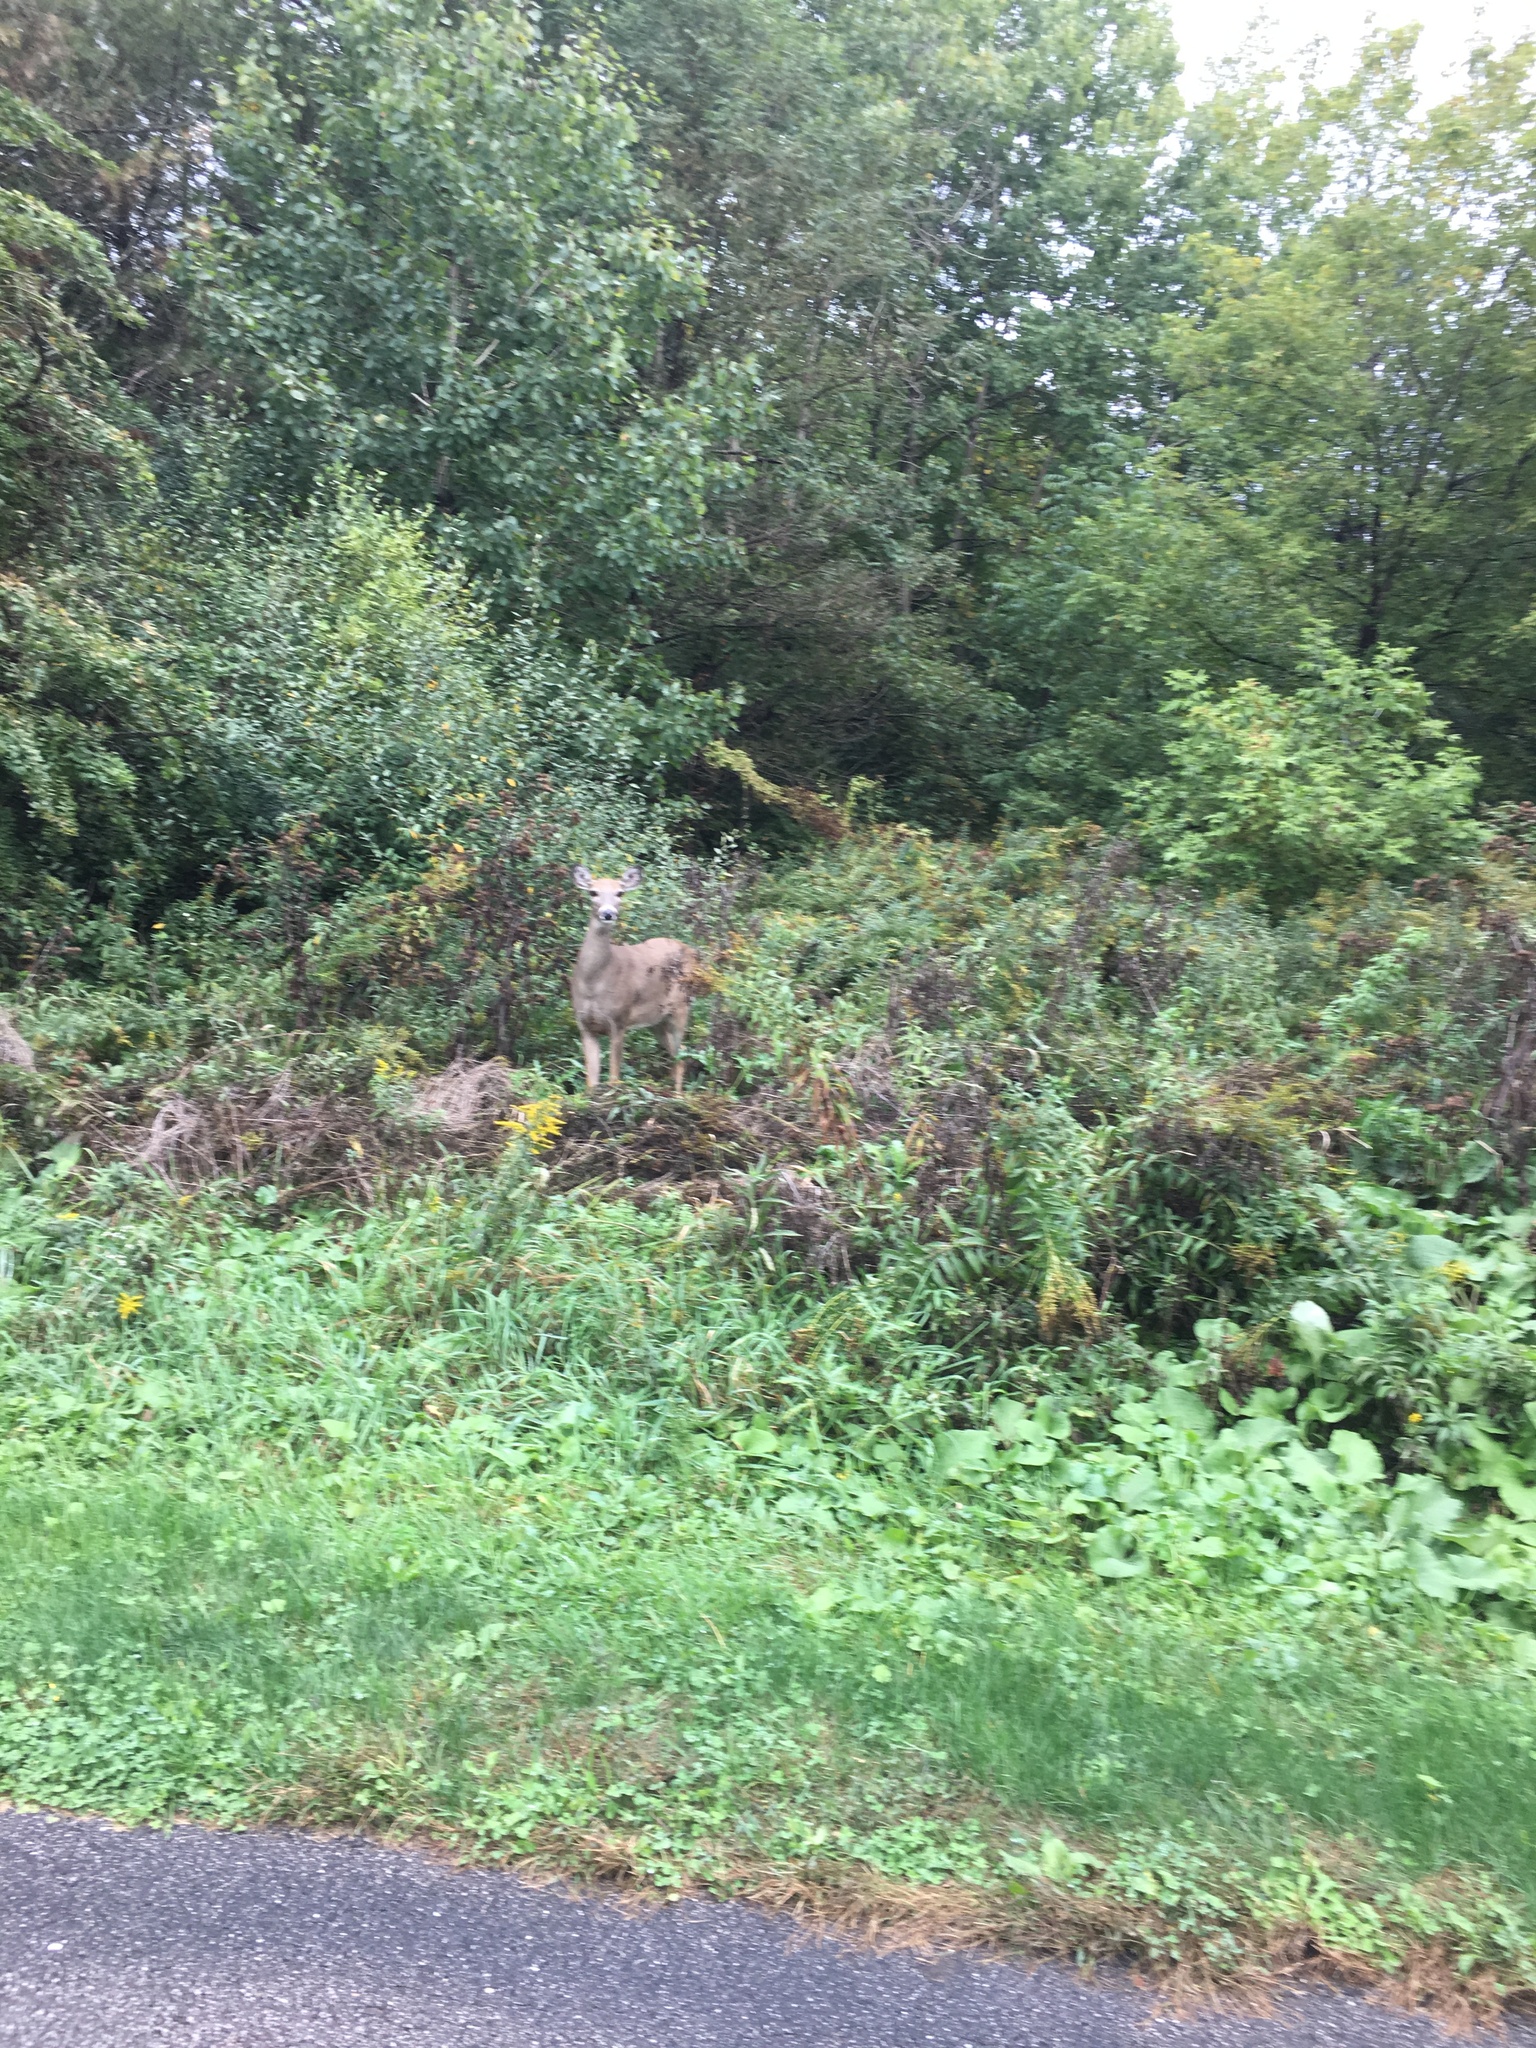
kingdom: Animalia
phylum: Chordata
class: Mammalia
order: Artiodactyla
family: Cervidae
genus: Odocoileus
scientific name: Odocoileus virginianus
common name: White-tailed deer
